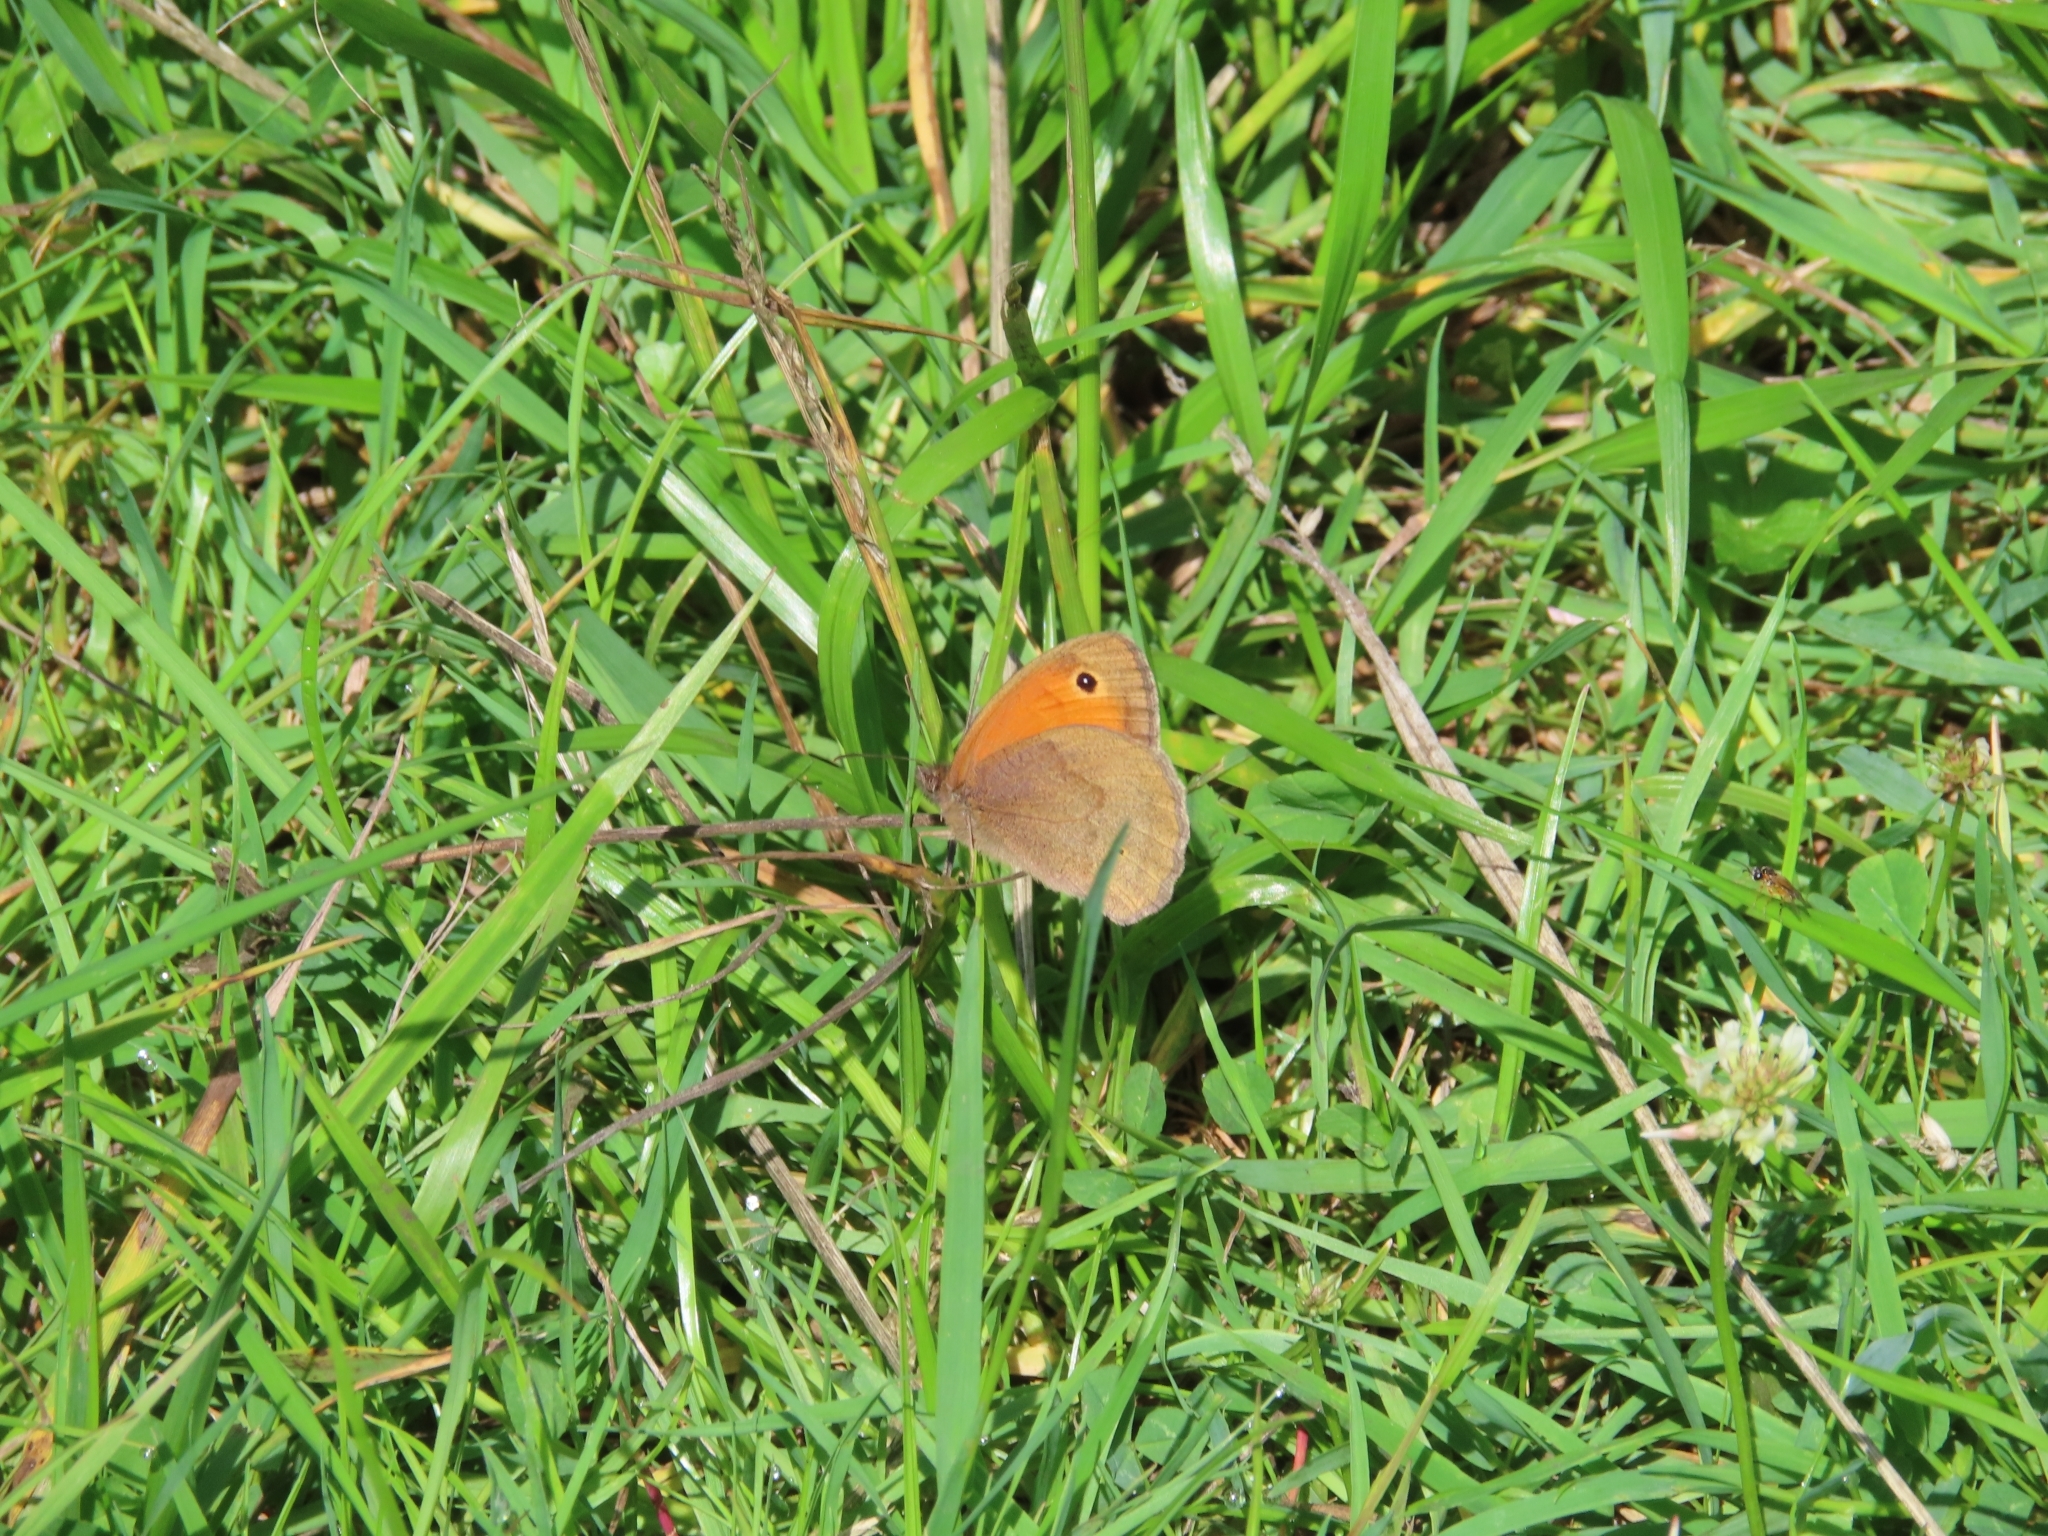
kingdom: Animalia
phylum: Arthropoda
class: Insecta
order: Lepidoptera
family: Nymphalidae
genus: Maniola
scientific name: Maniola jurtina
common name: Meadow brown
